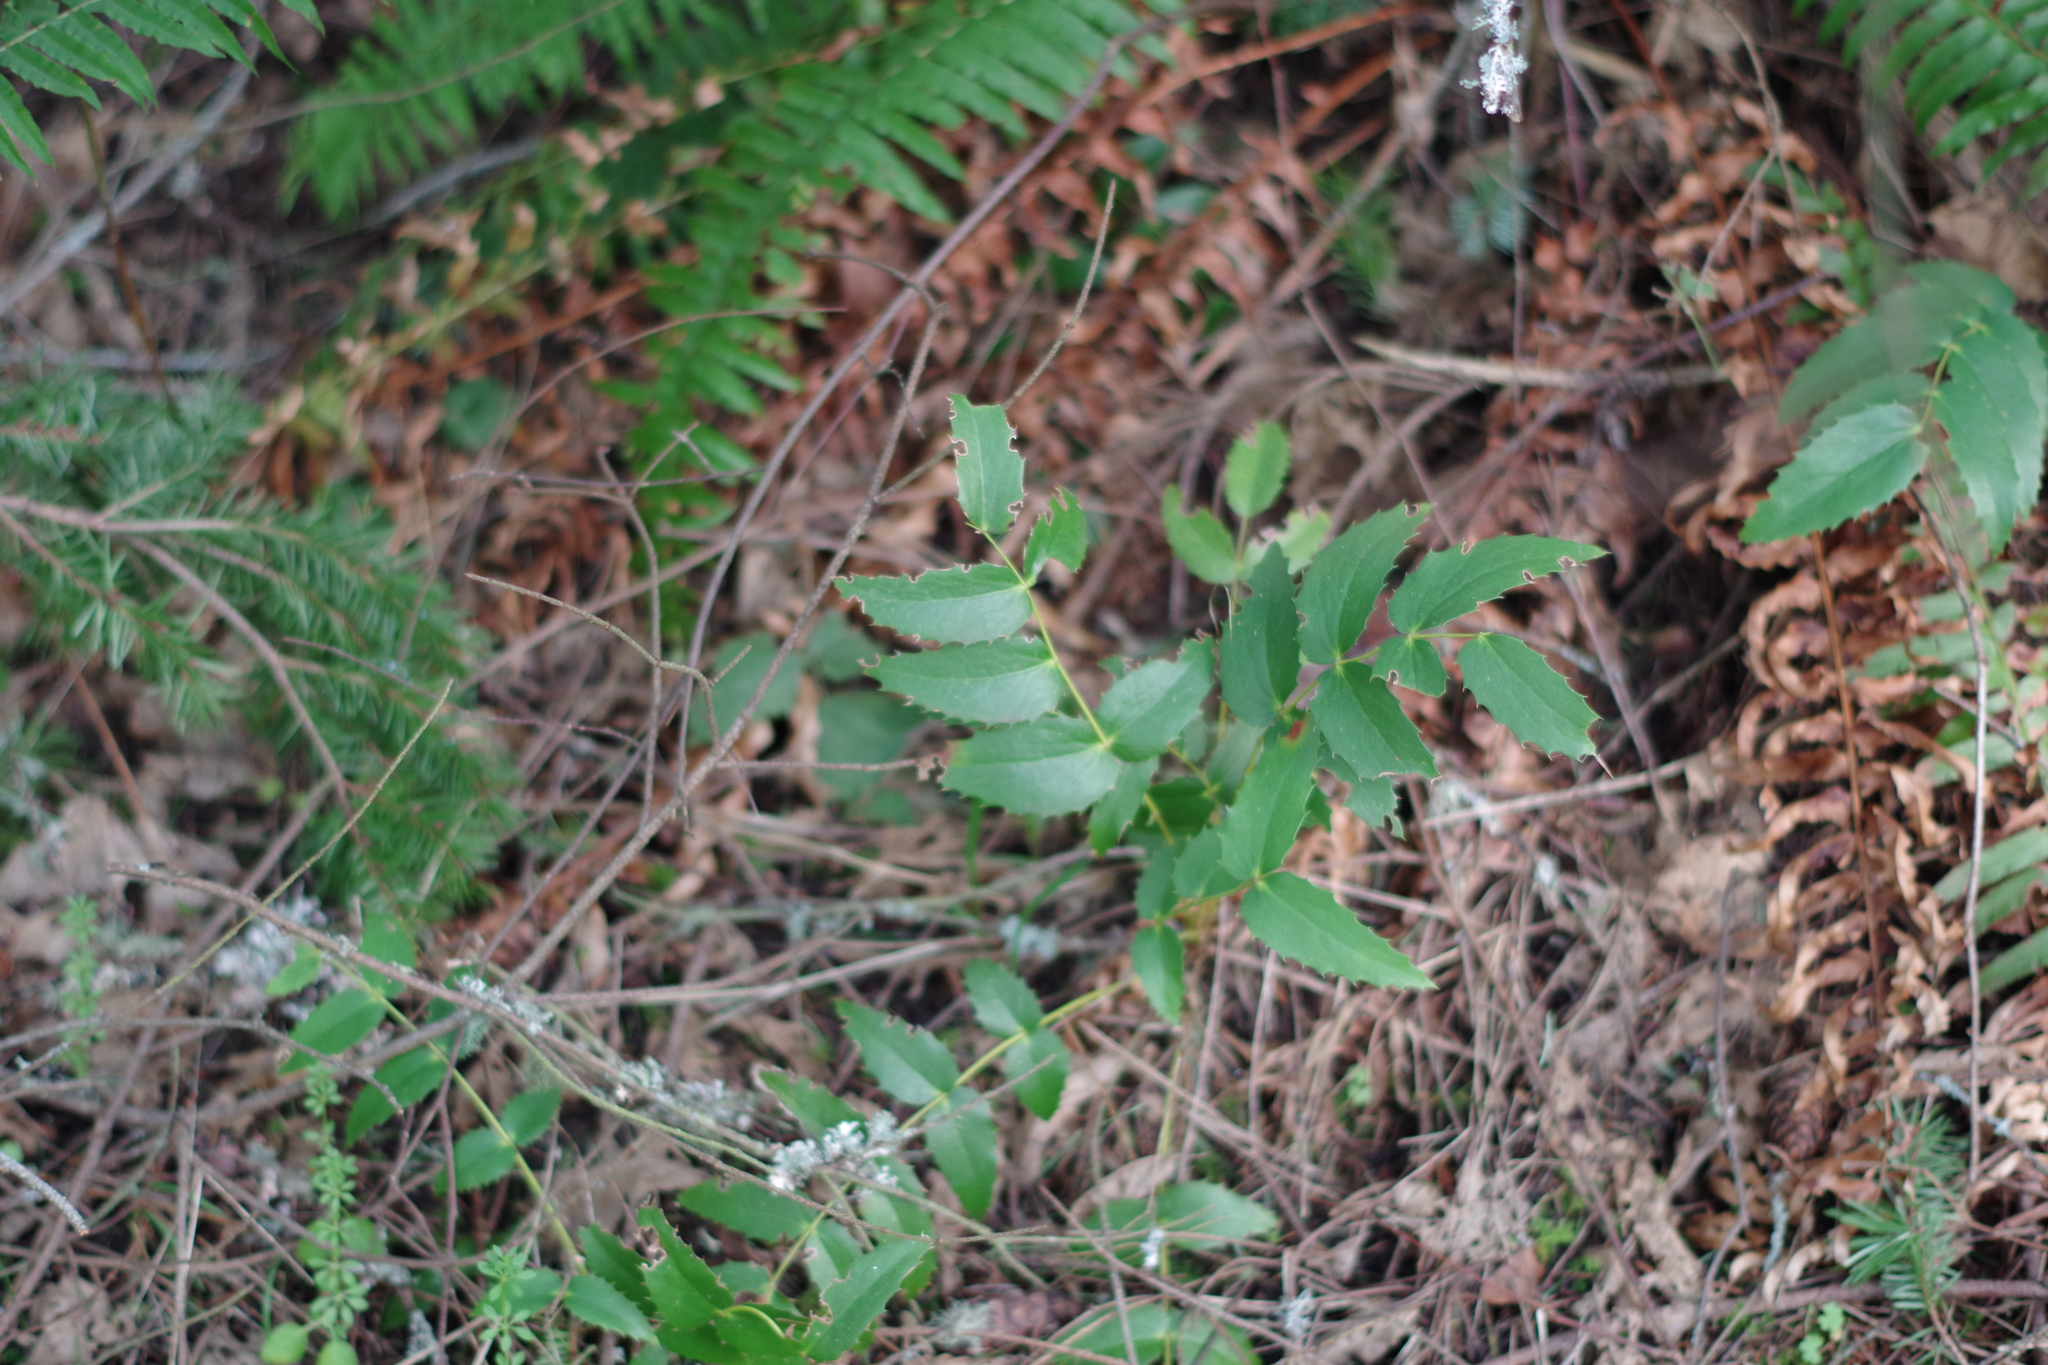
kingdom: Plantae
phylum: Tracheophyta
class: Magnoliopsida
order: Ranunculales
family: Berberidaceae
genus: Mahonia
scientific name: Mahonia nervosa
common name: Cascade oregon-grape
